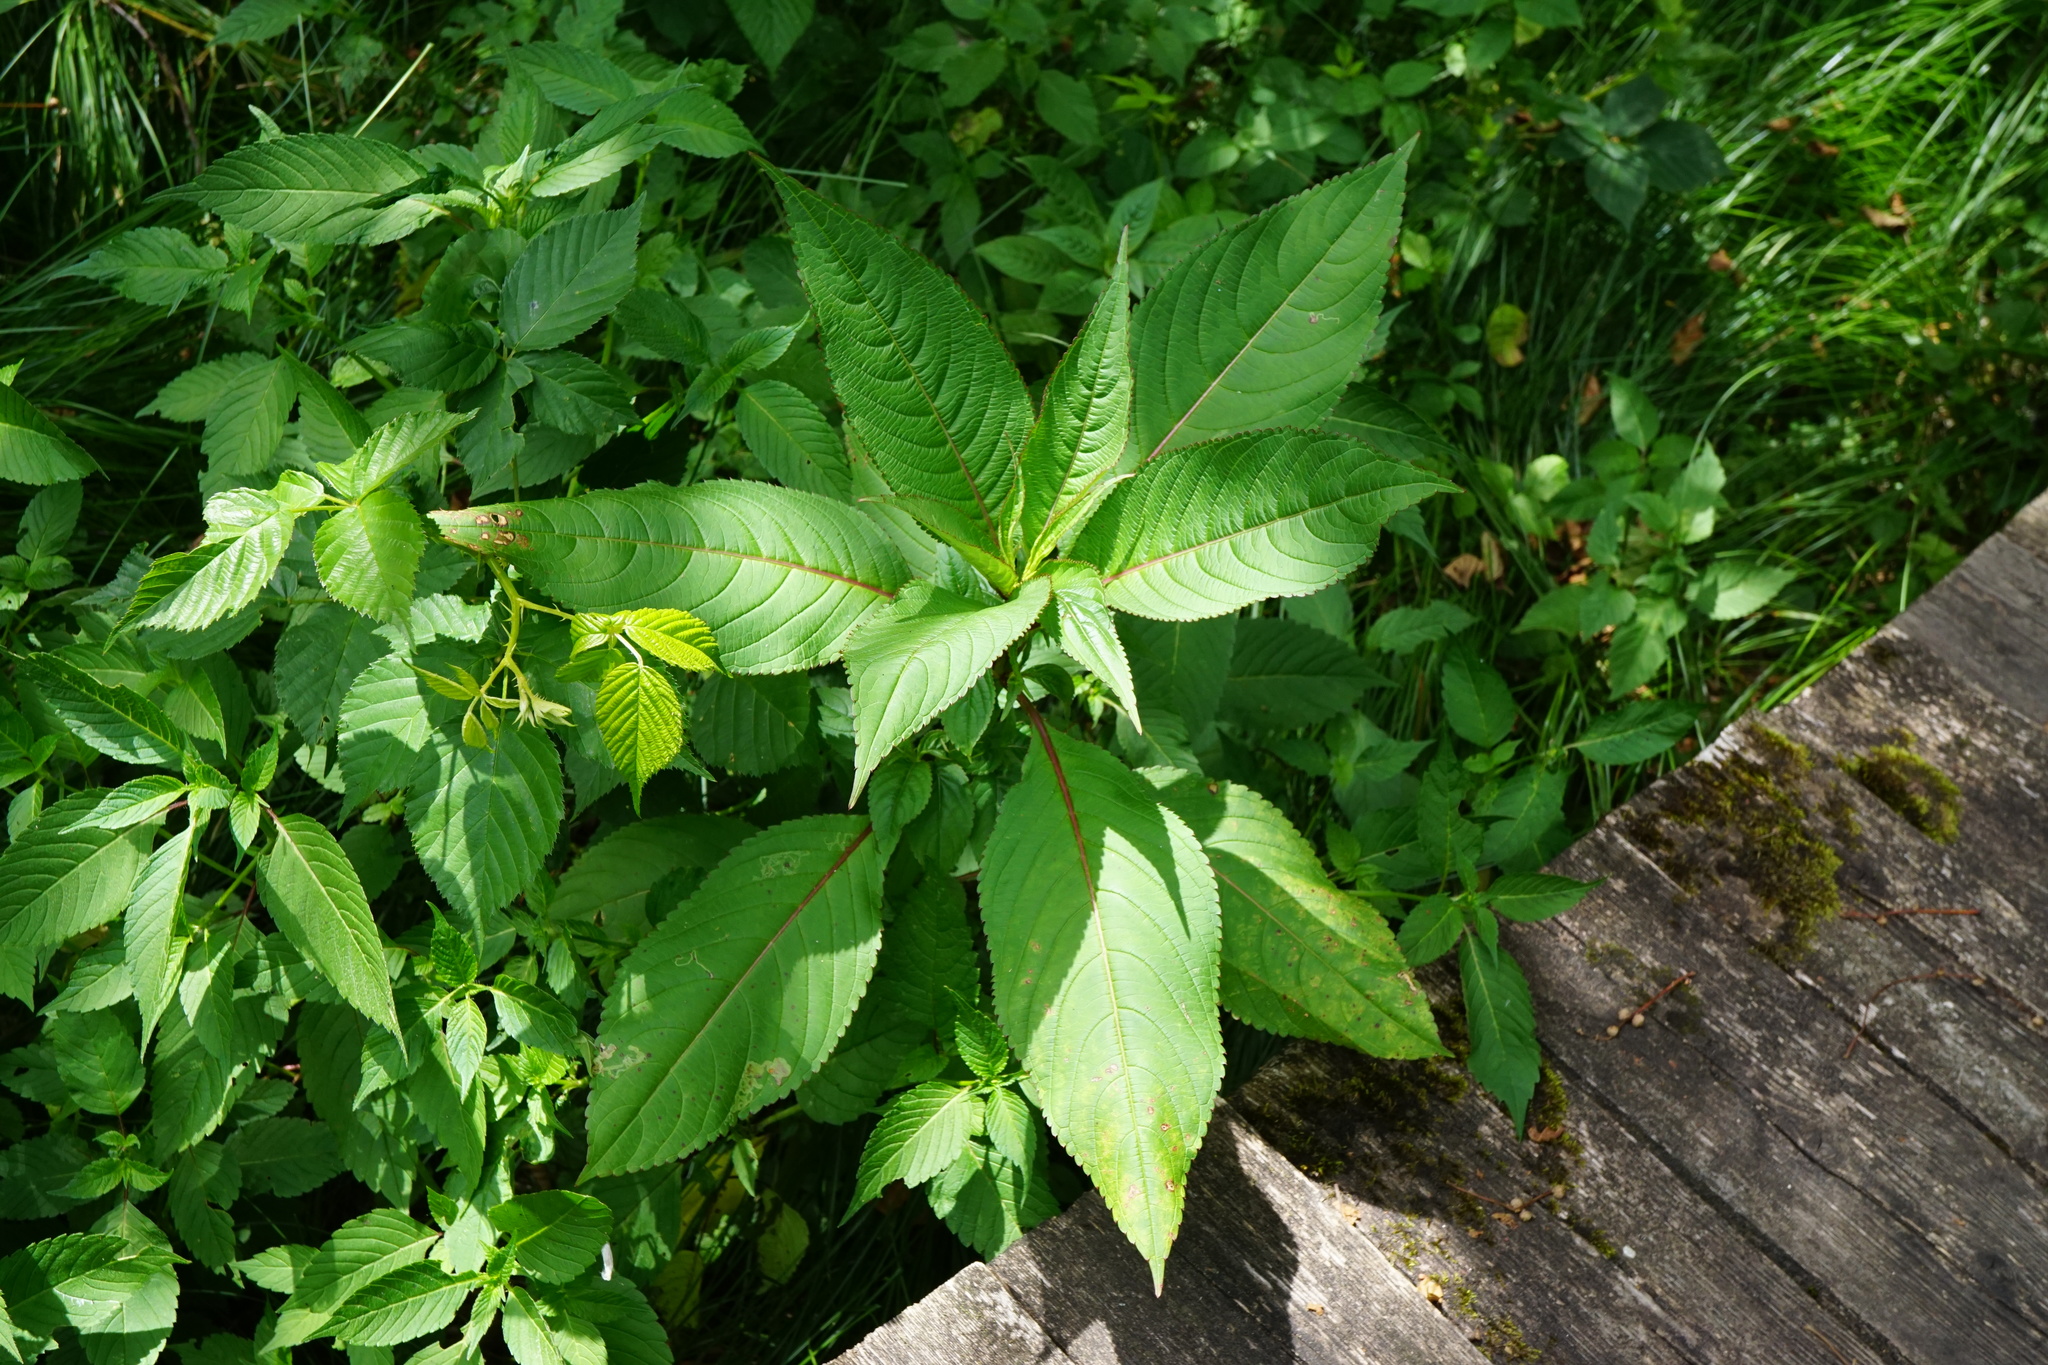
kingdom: Plantae
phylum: Tracheophyta
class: Magnoliopsida
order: Ericales
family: Balsaminaceae
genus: Impatiens
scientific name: Impatiens glandulifera
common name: Himalayan balsam
